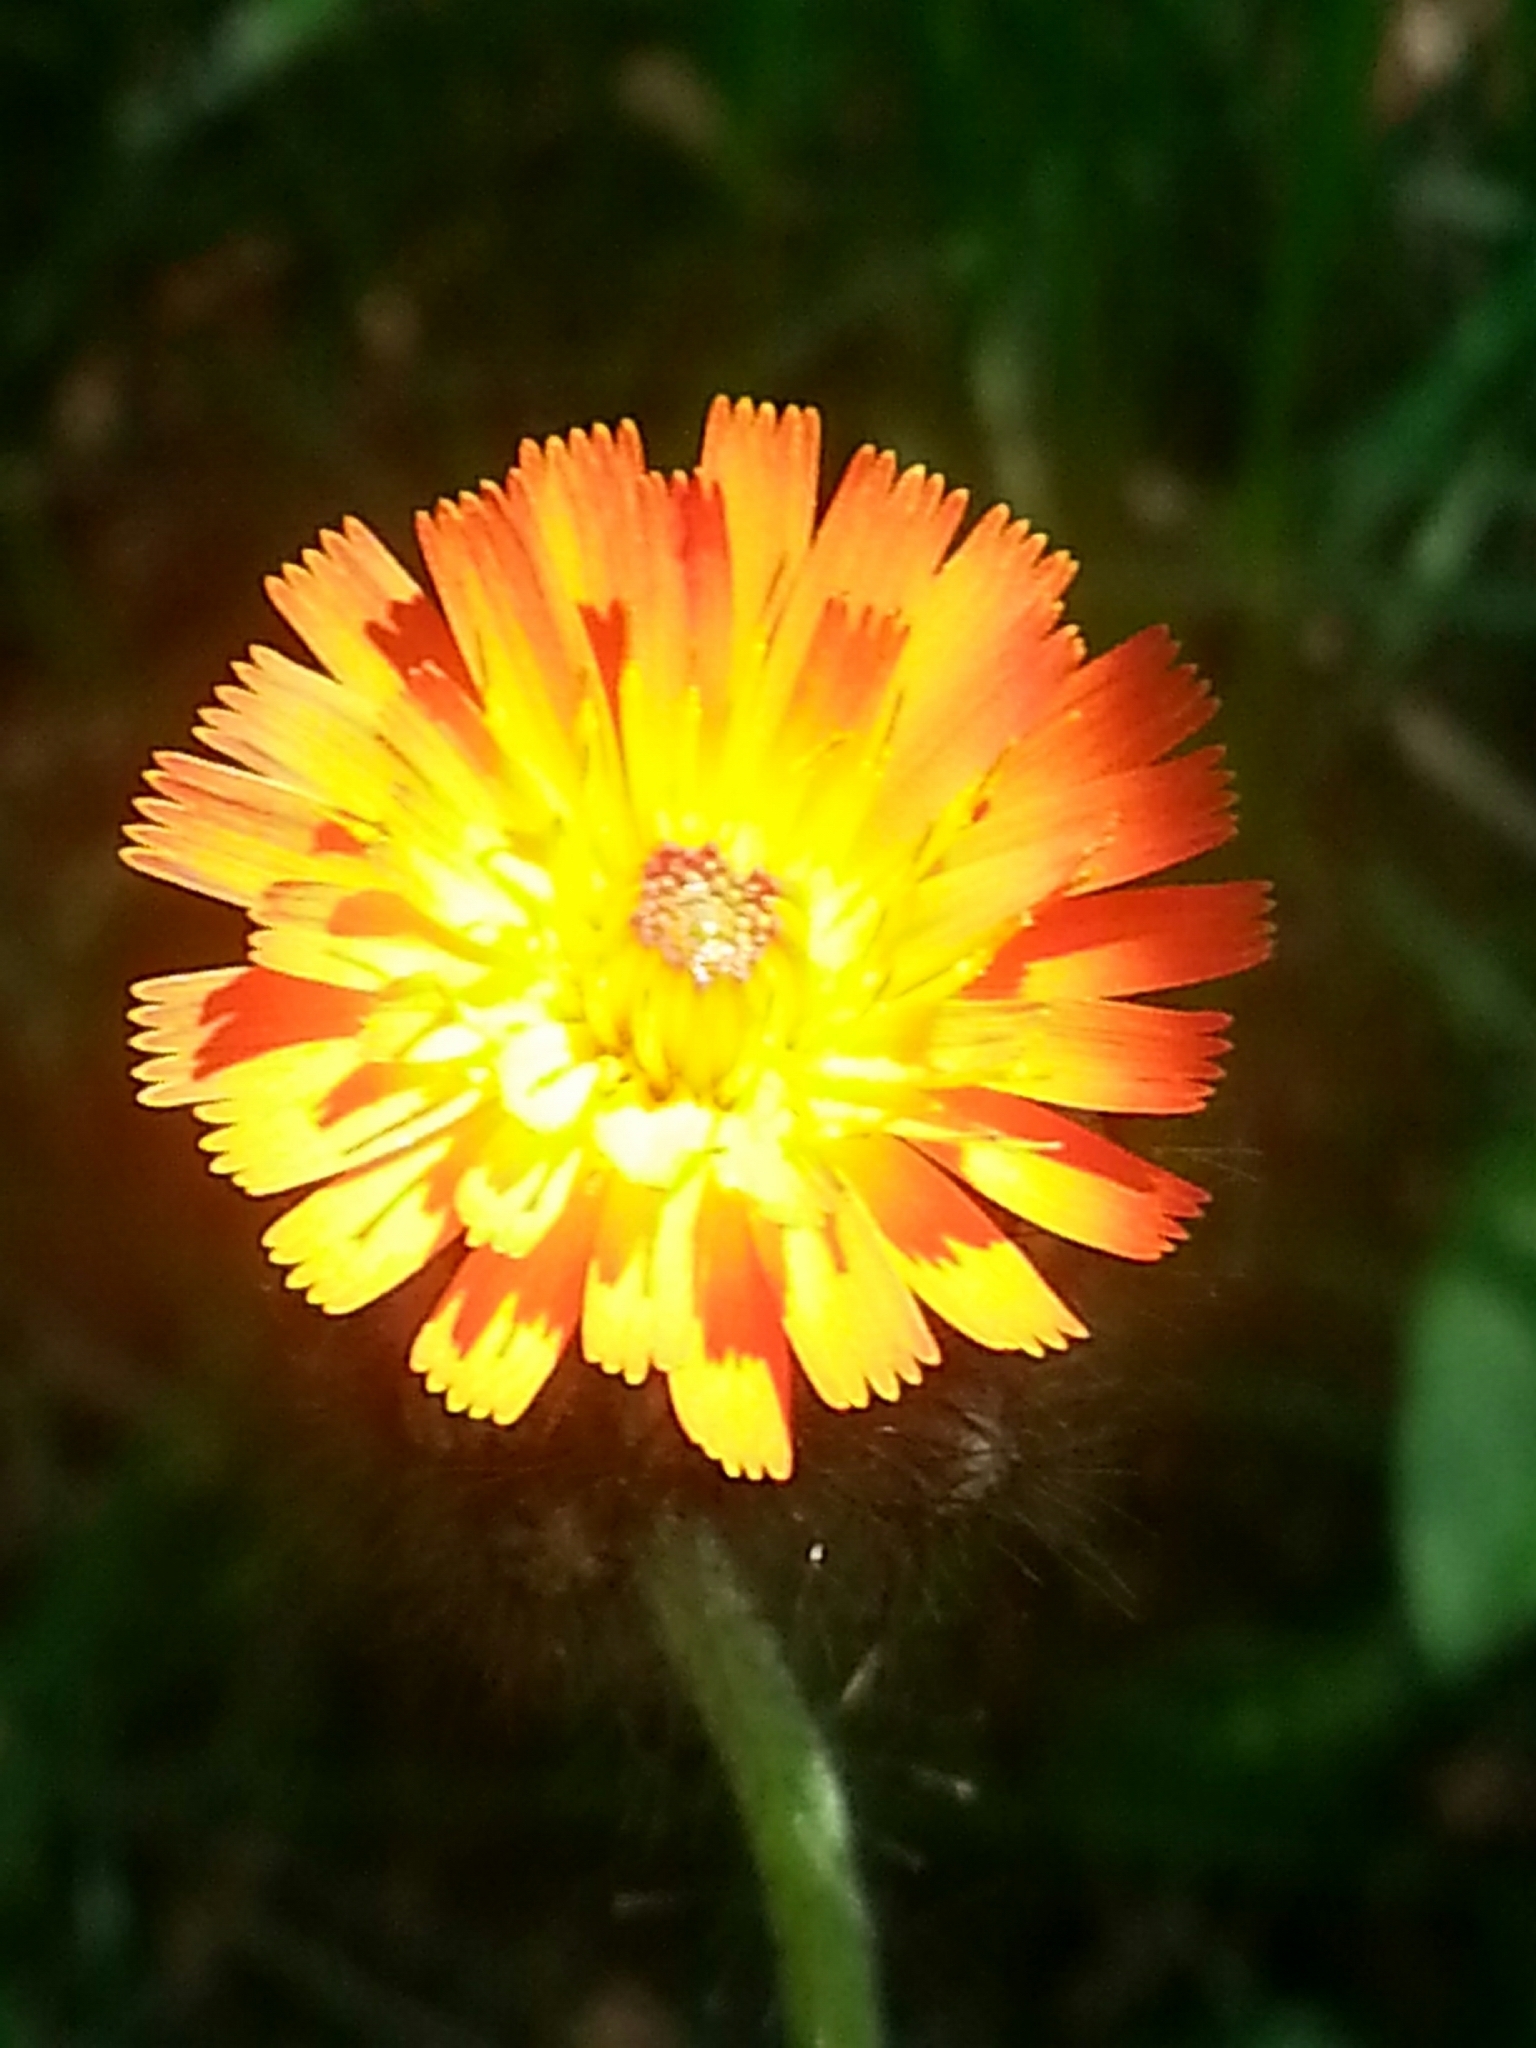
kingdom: Plantae
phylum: Tracheophyta
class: Magnoliopsida
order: Asterales
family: Asteraceae
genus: Pilosella
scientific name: Pilosella aurantiaca
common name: Fox-and-cubs
